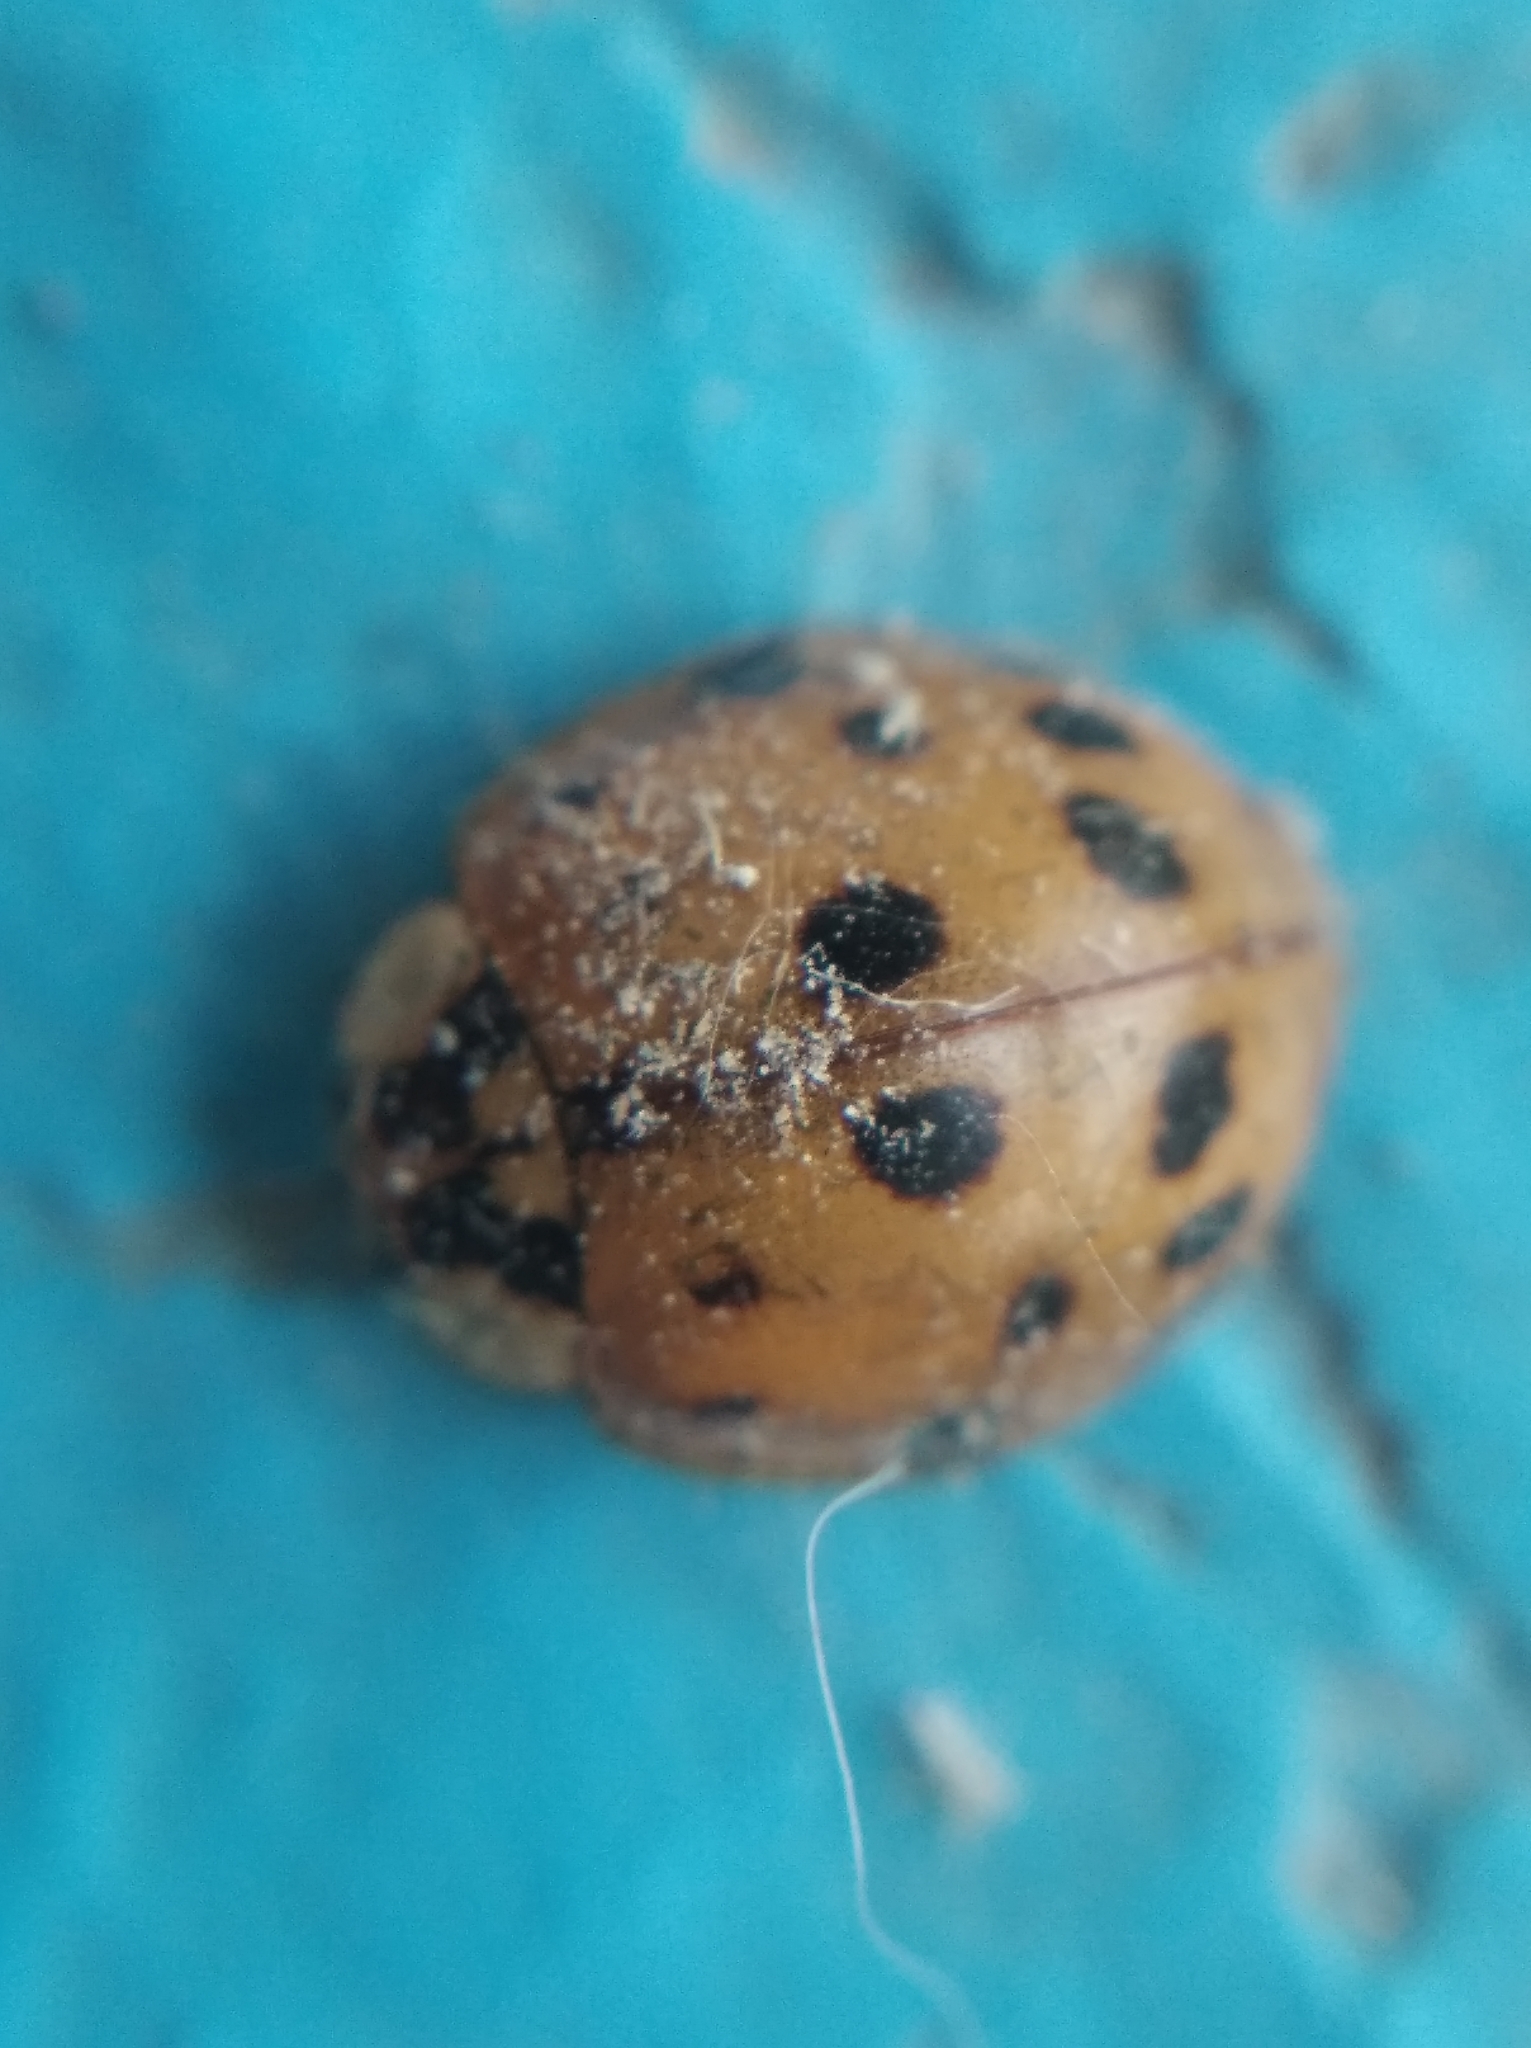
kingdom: Animalia
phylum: Arthropoda
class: Insecta
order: Coleoptera
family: Coccinellidae
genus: Harmonia
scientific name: Harmonia axyridis
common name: Harlequin ladybird
